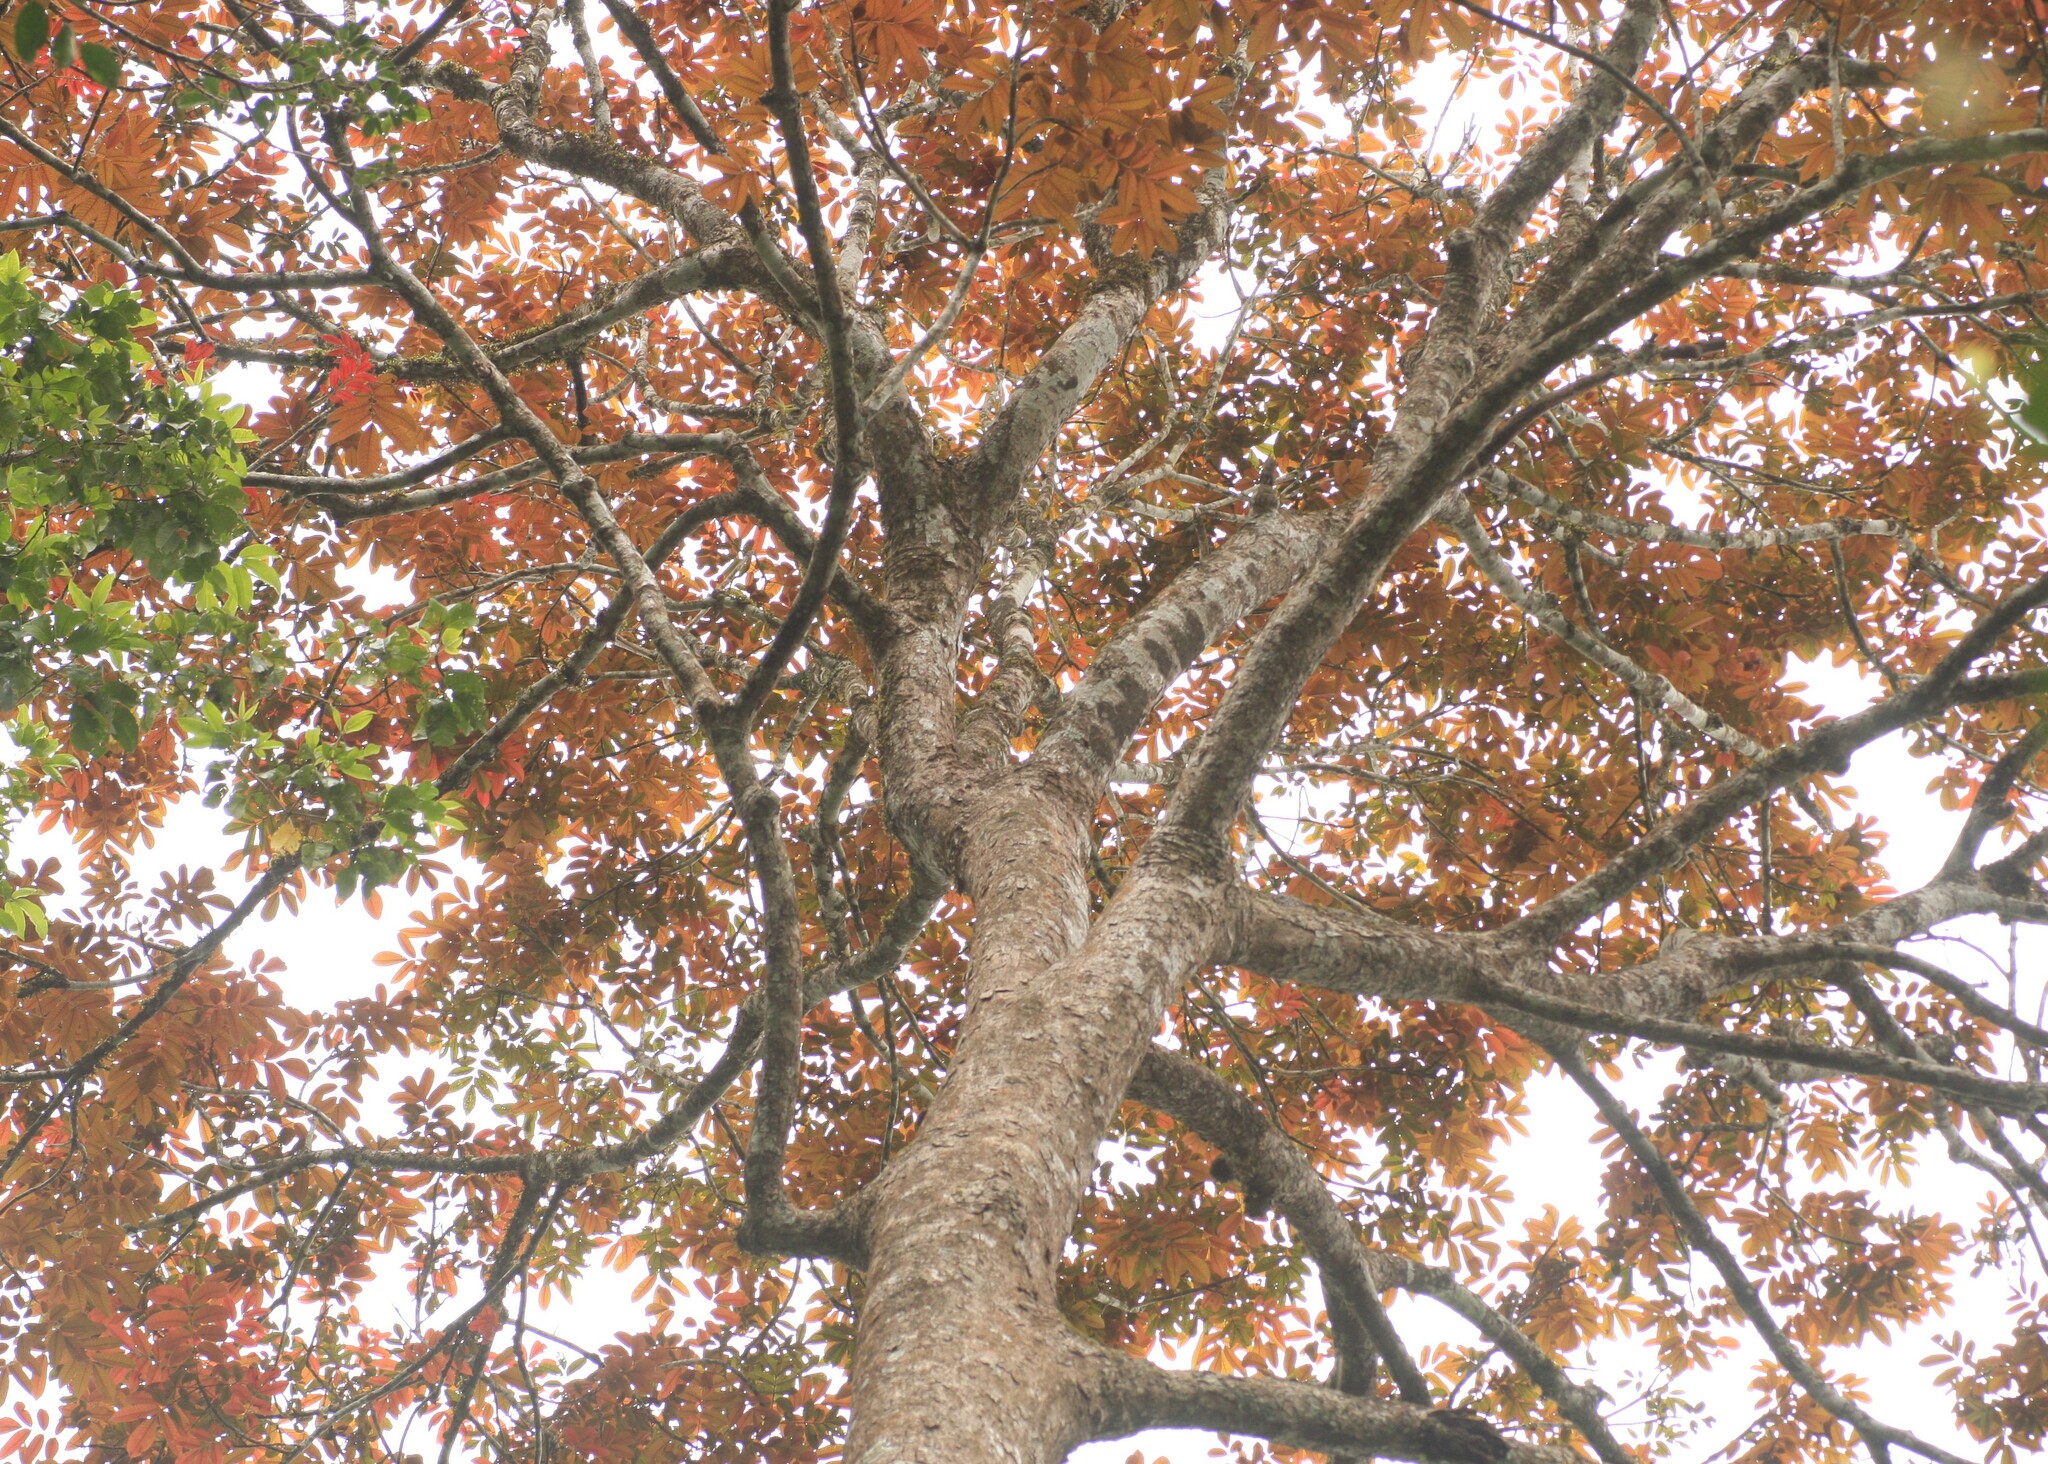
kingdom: Plantae
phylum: Tracheophyta
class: Magnoliopsida
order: Sapindales
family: Burseraceae
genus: Canarium
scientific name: Canarium strictum
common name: Indian white-mahogany
